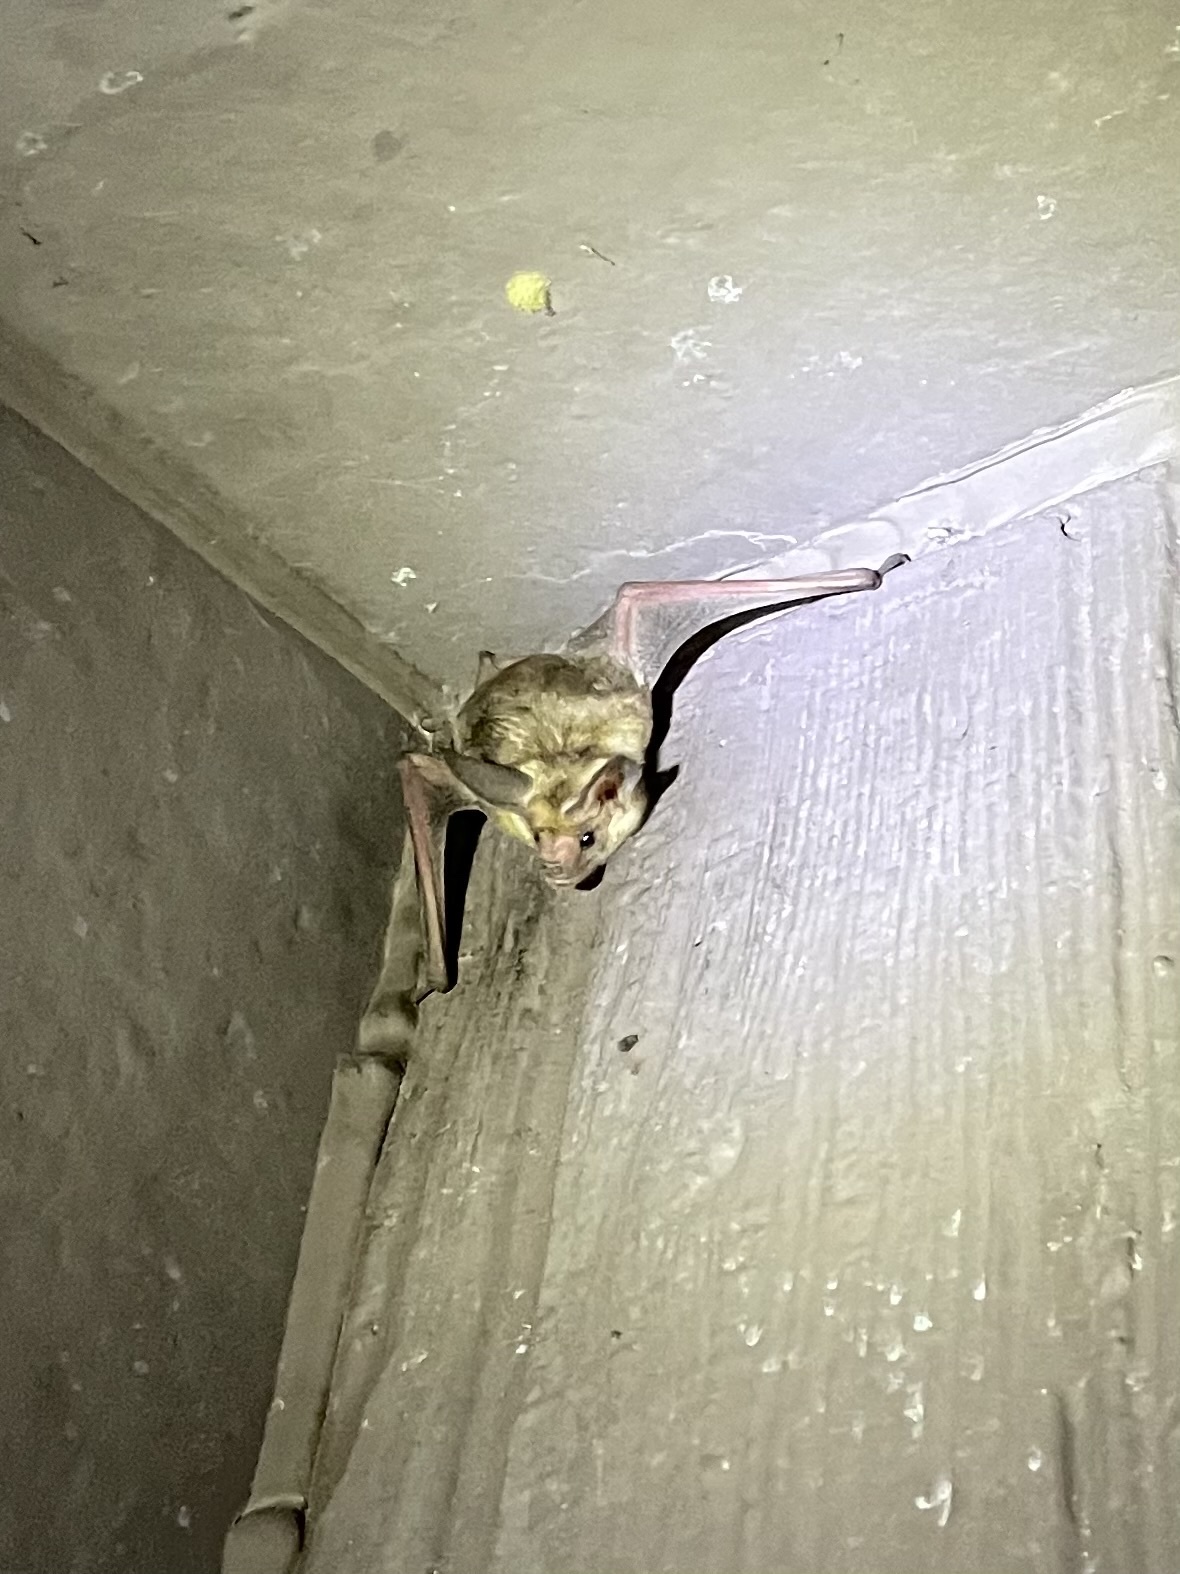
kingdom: Animalia
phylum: Chordata
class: Mammalia
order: Chiroptera
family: Vespertilionidae
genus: Antrozous
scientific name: Antrozous pallidus
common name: Pallid bat
